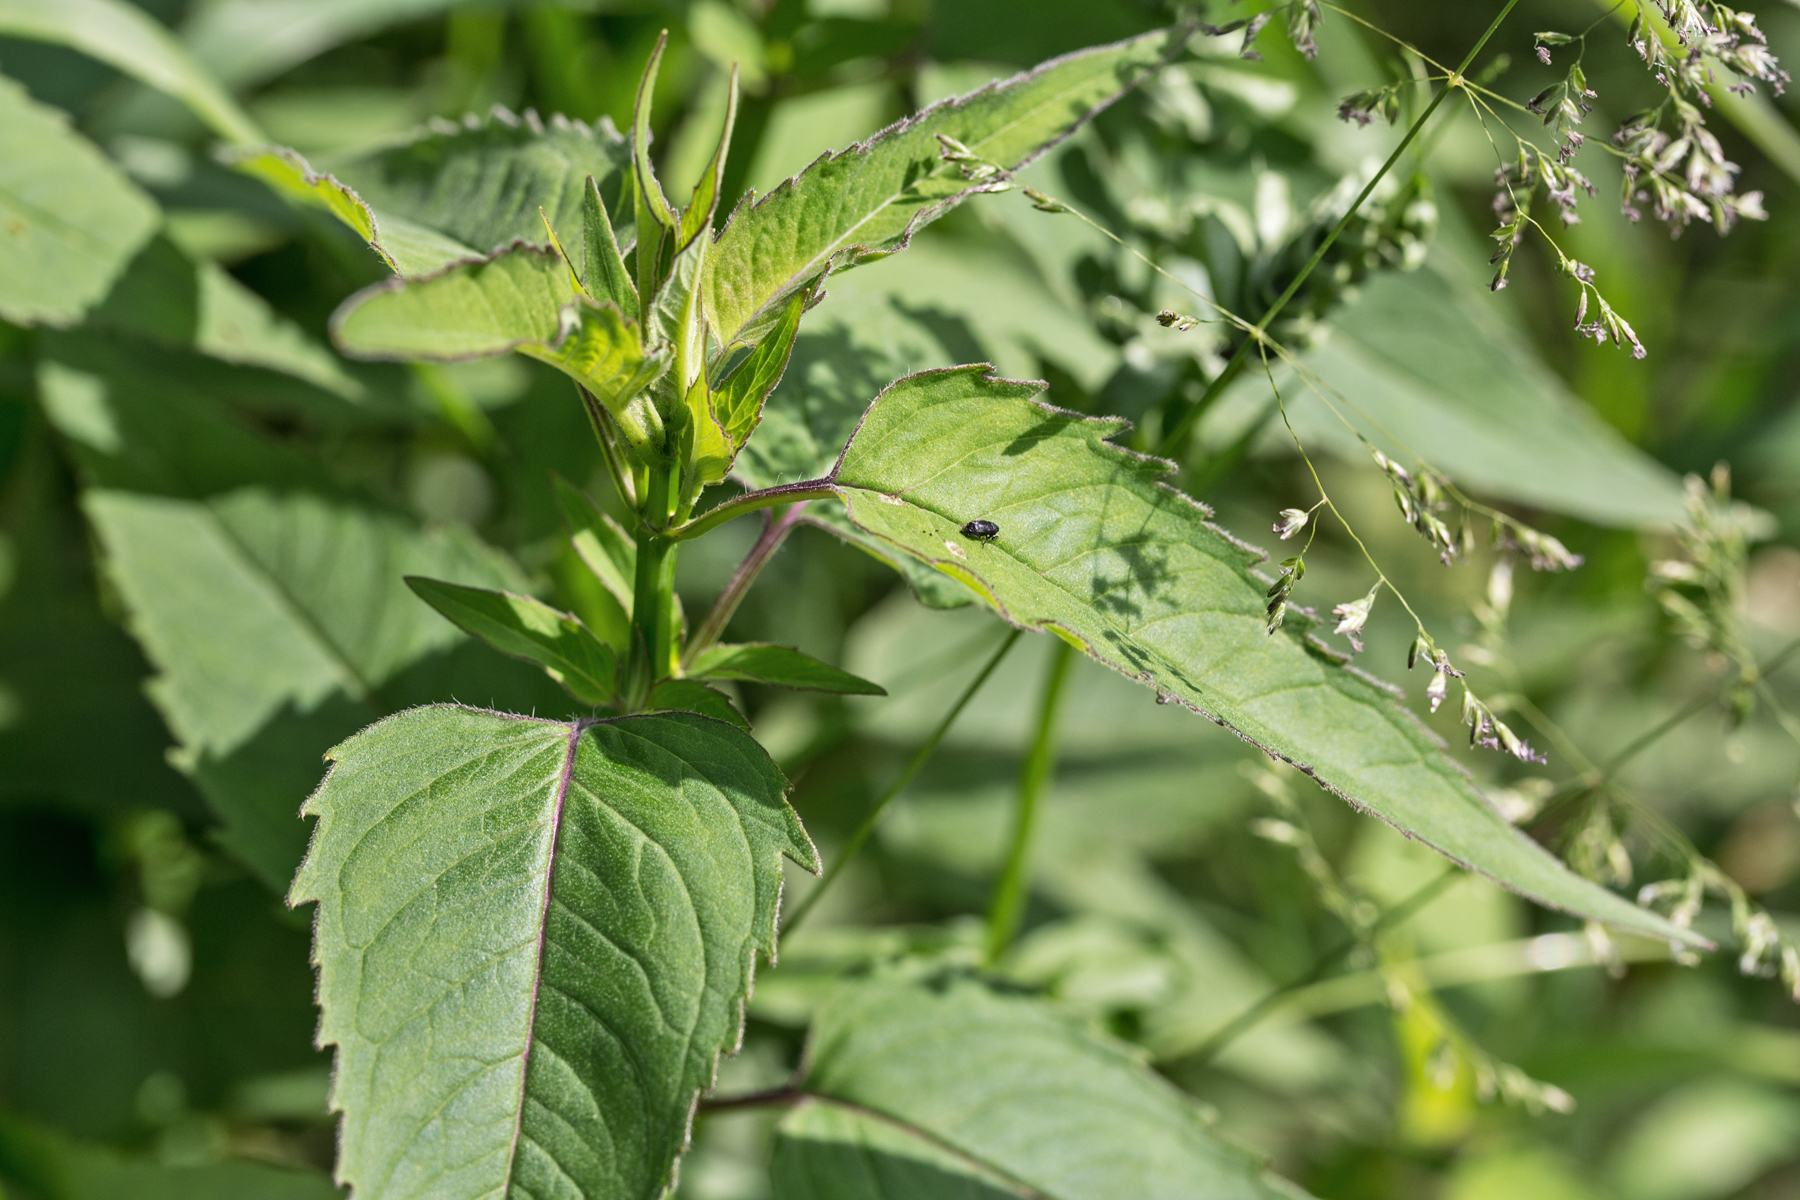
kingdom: Plantae
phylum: Tracheophyta
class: Magnoliopsida
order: Lamiales
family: Lamiaceae
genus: Monarda
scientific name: Monarda fistulosa
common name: Purple beebalm
